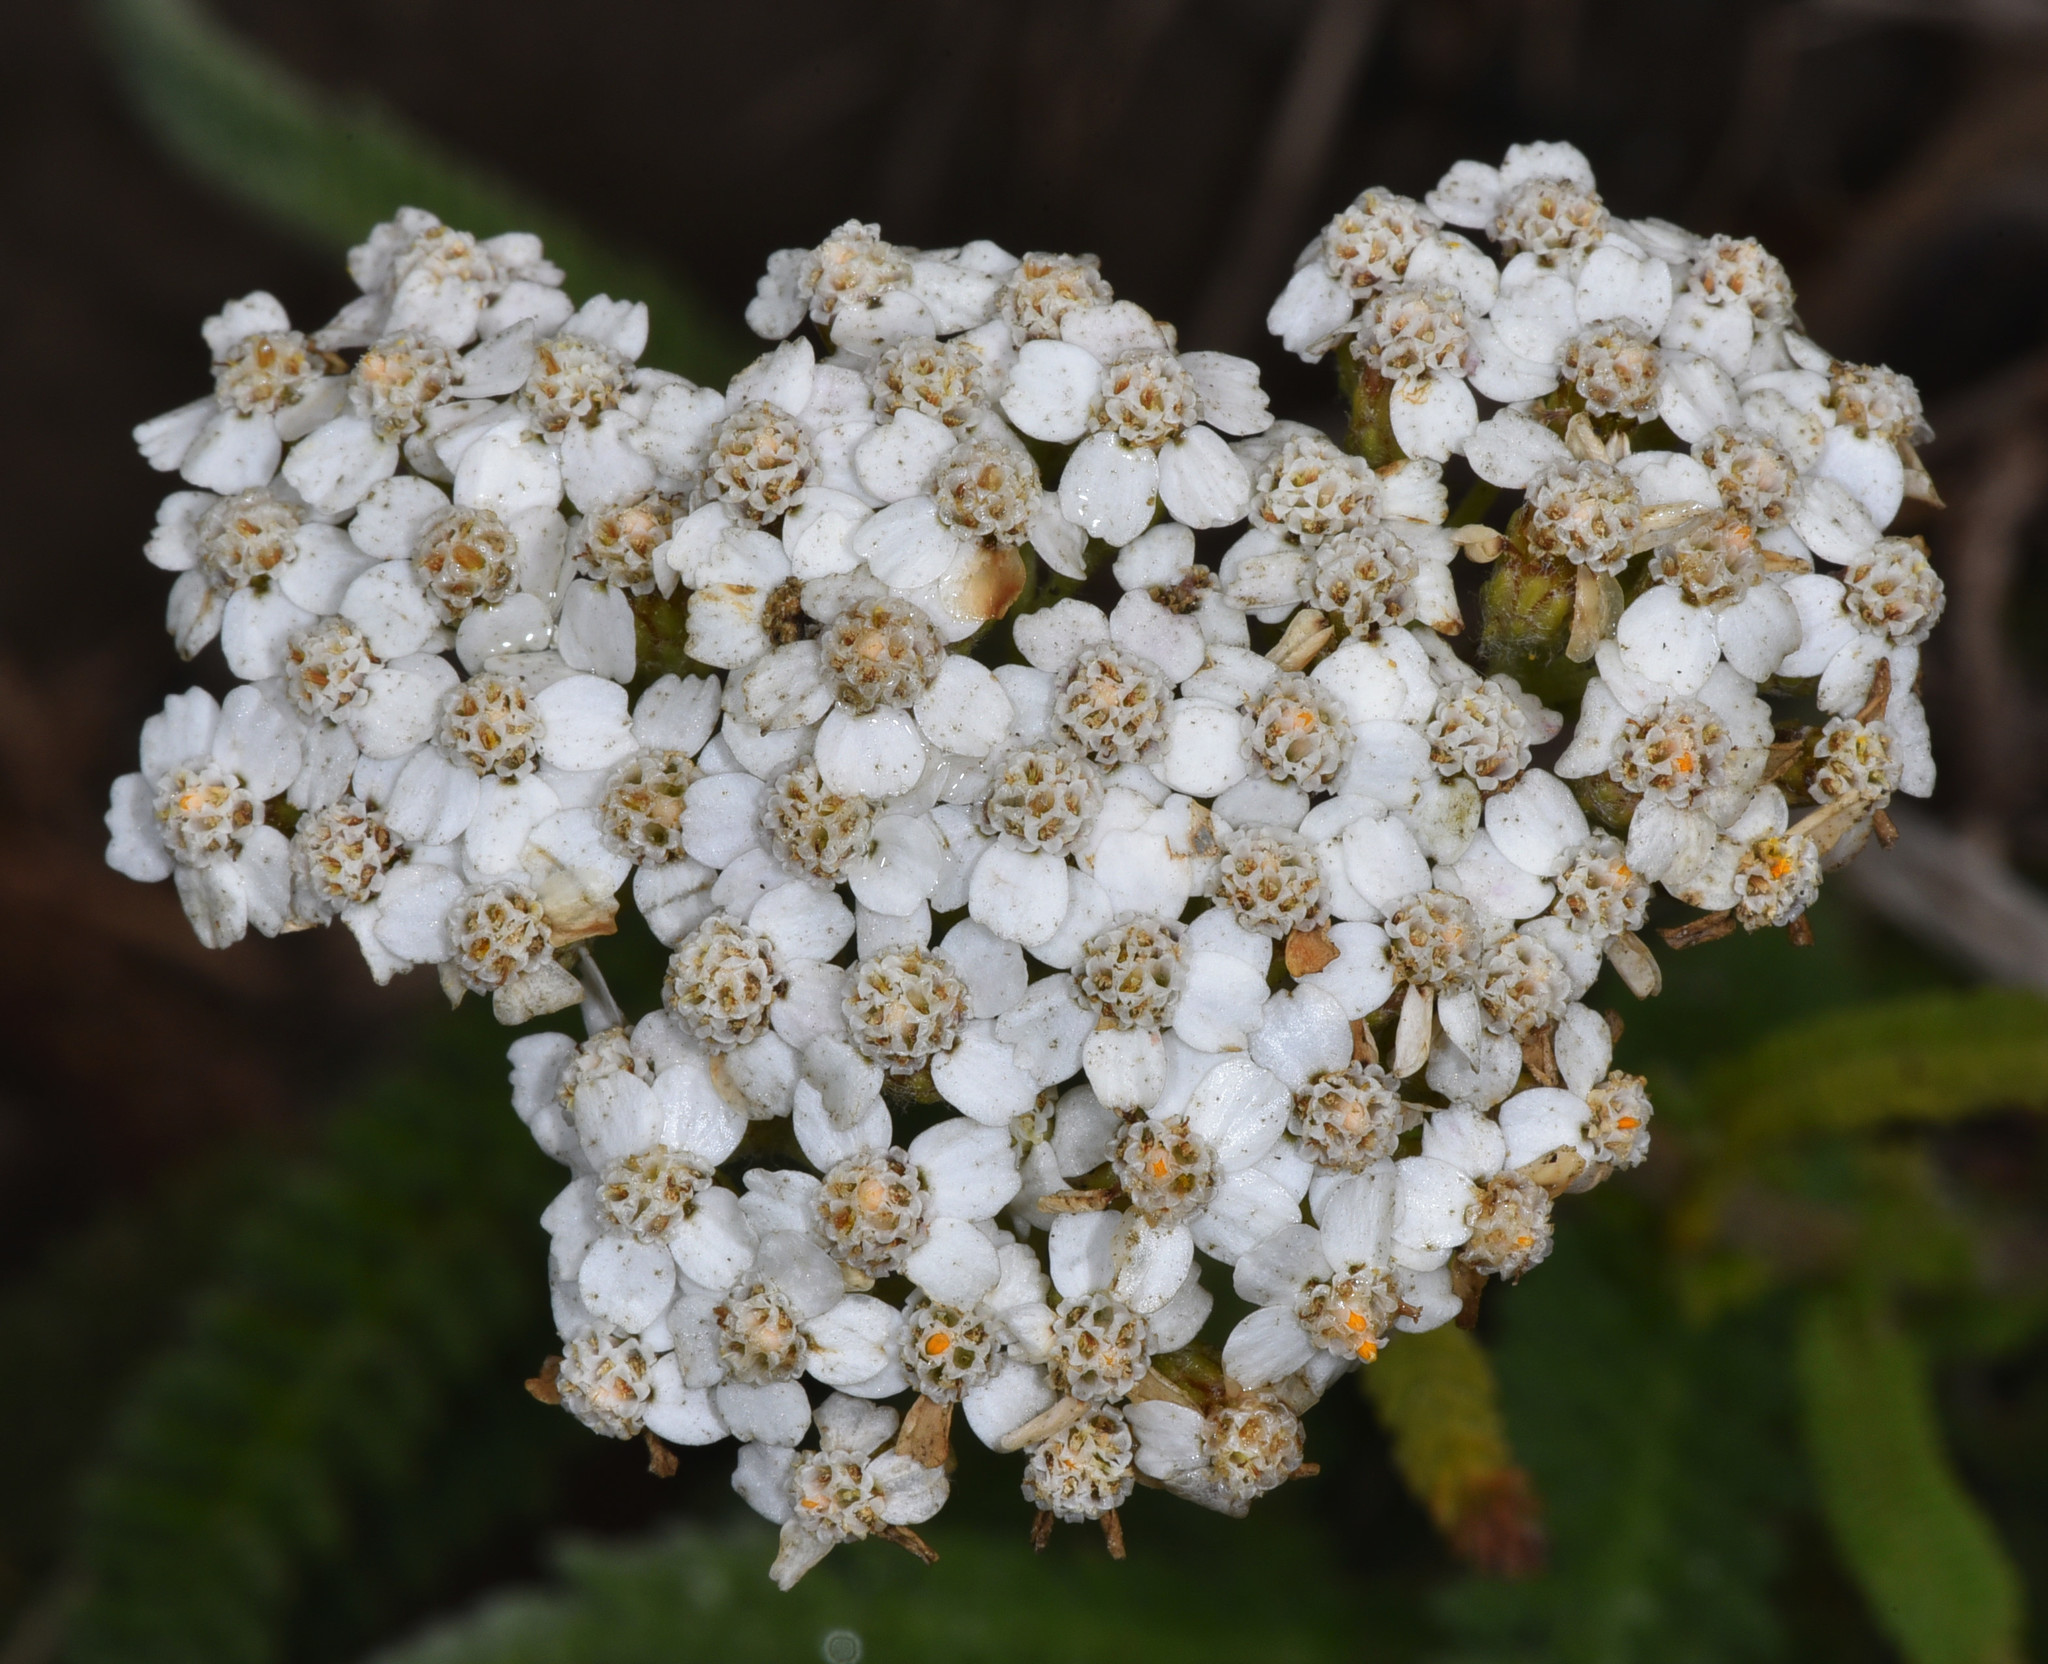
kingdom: Plantae
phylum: Tracheophyta
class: Magnoliopsida
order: Asterales
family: Asteraceae
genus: Achillea
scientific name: Achillea millefolium
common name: Yarrow
